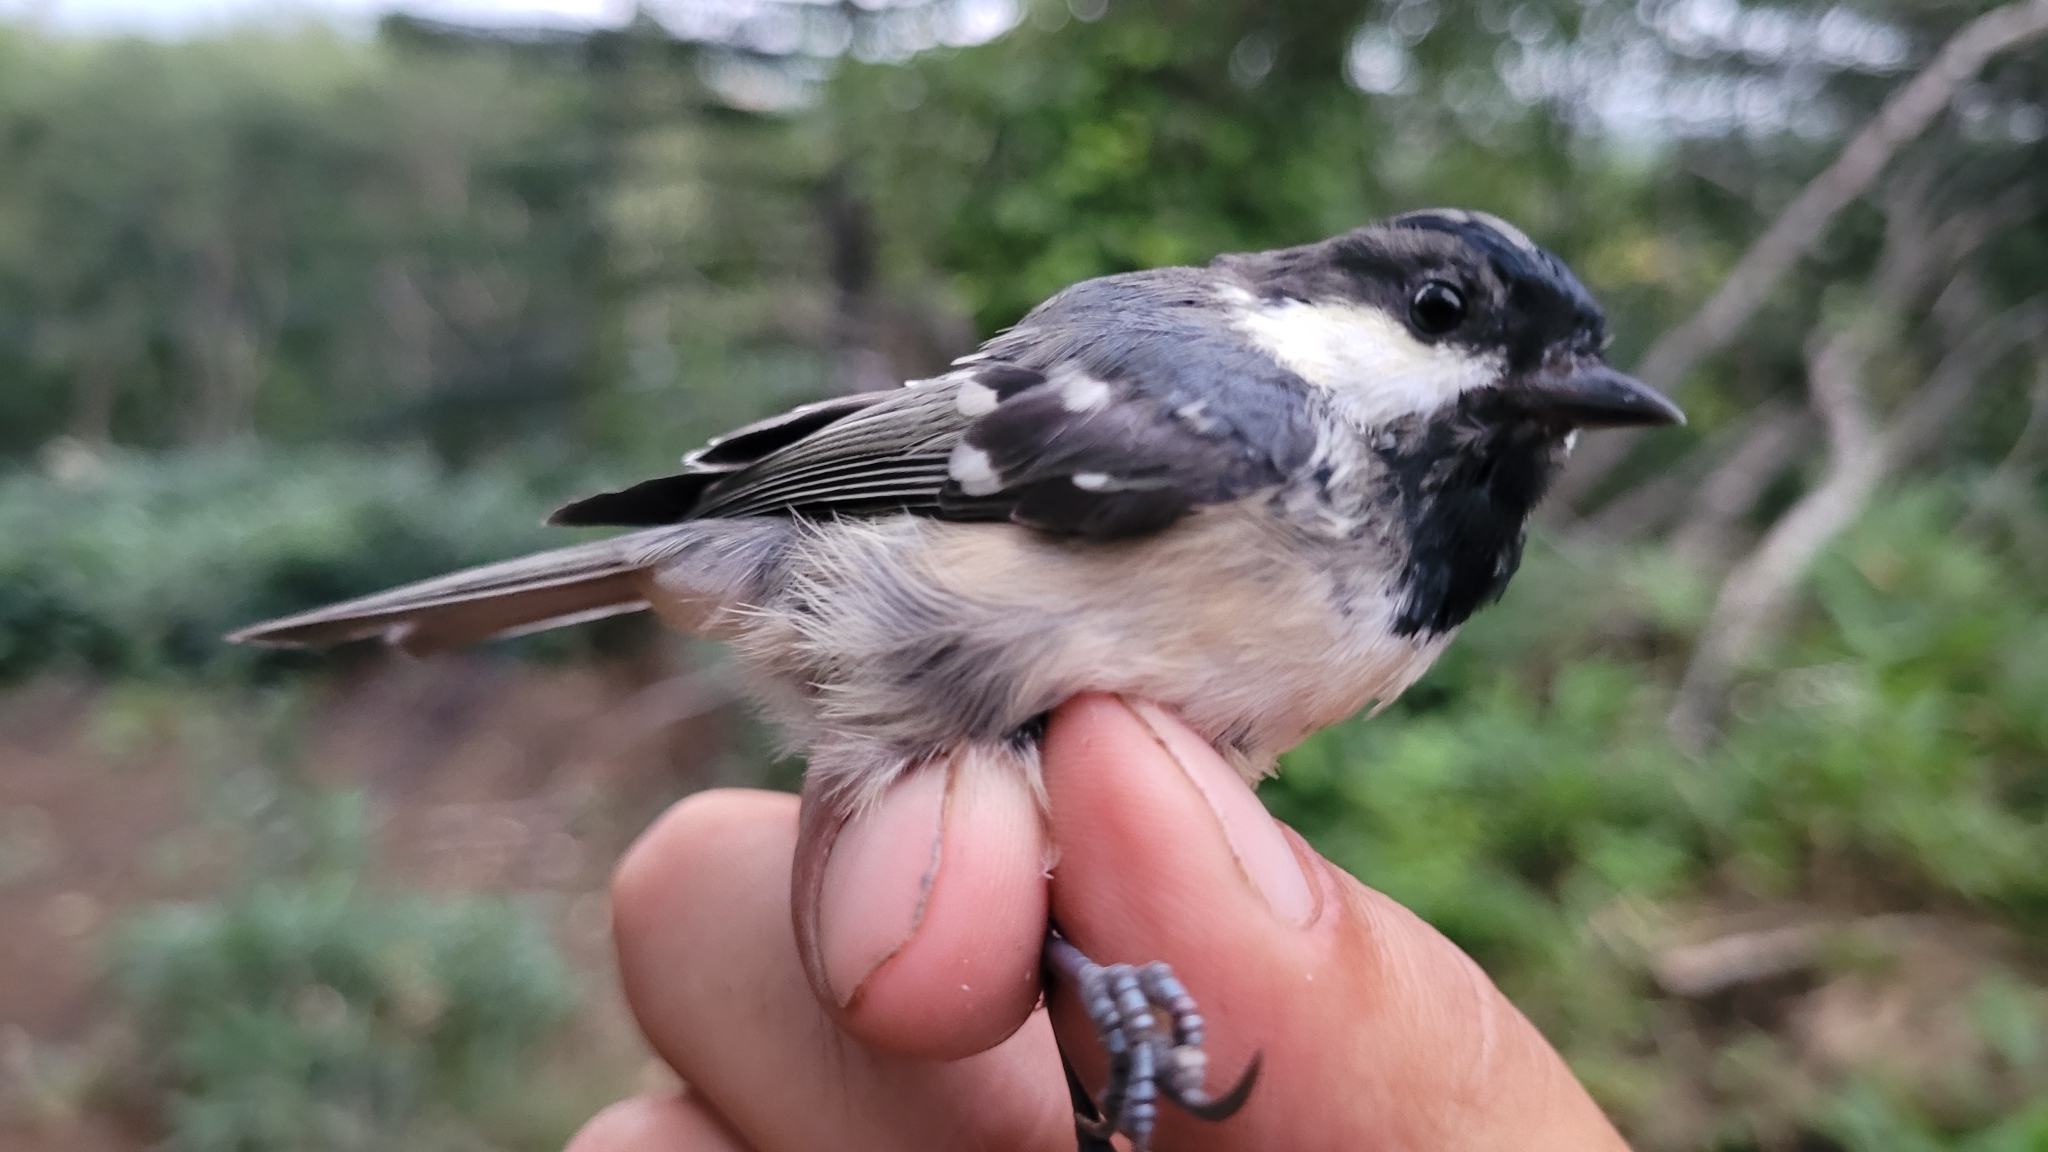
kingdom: Animalia
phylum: Chordata
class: Aves
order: Passeriformes
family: Paridae
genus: Periparus
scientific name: Periparus ater
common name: Coal tit
